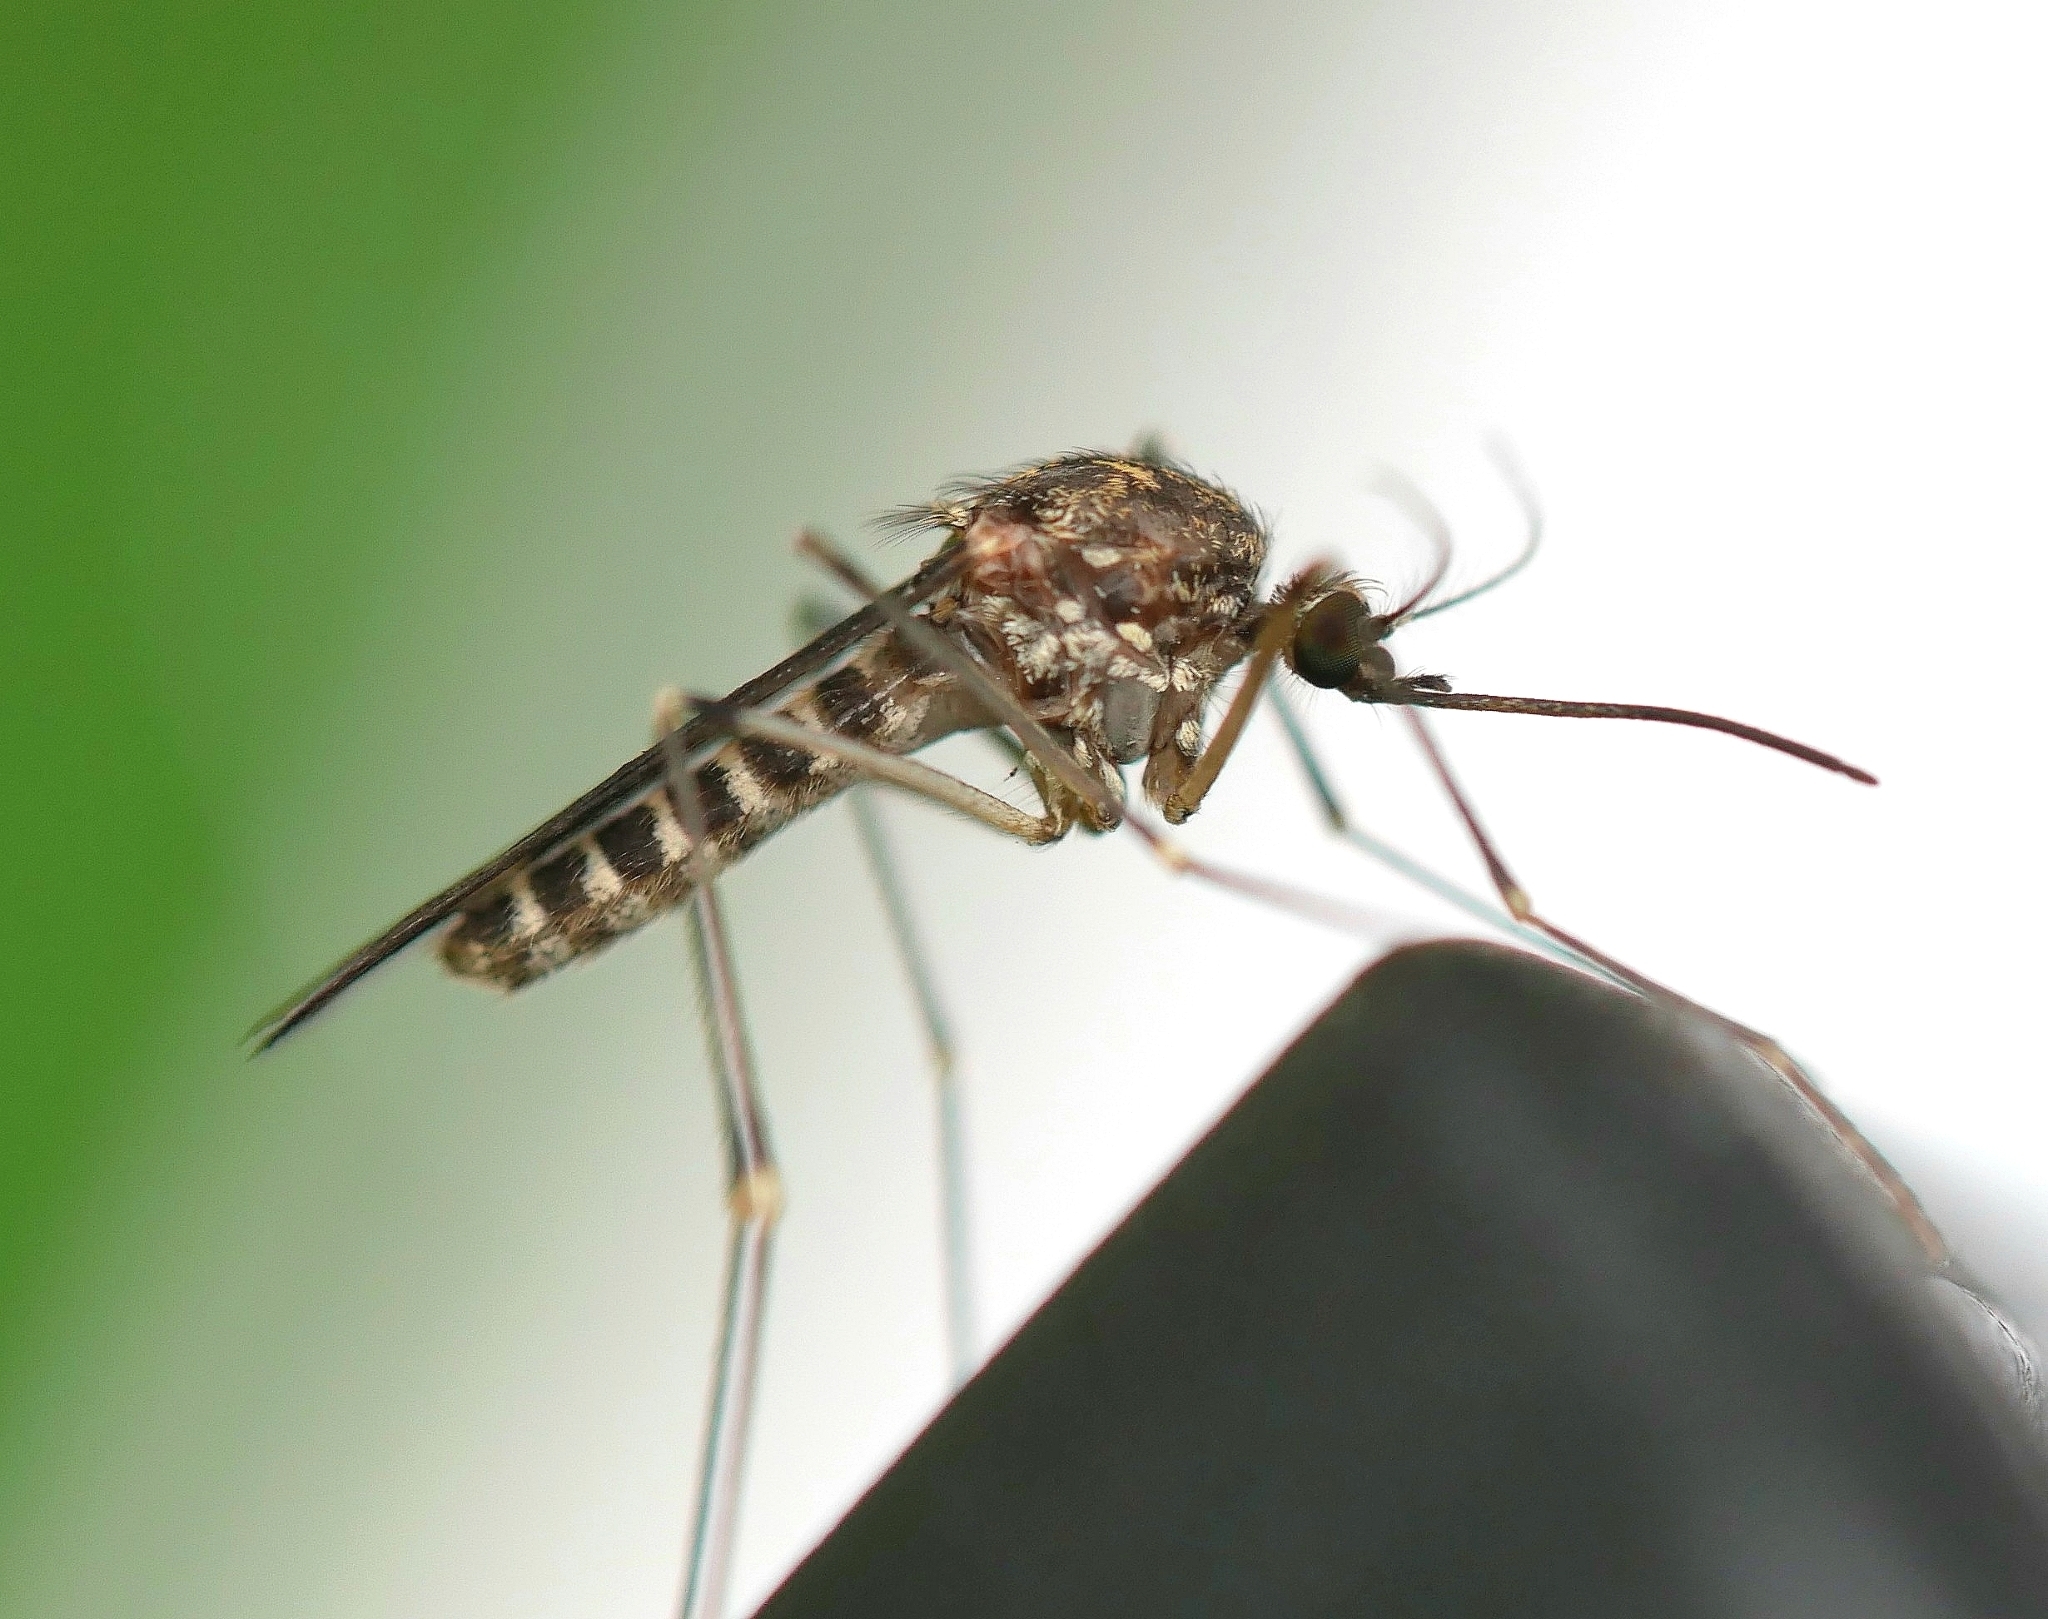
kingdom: Animalia
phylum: Arthropoda
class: Insecta
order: Diptera
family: Culicidae
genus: Culiseta
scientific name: Culiseta incidens
